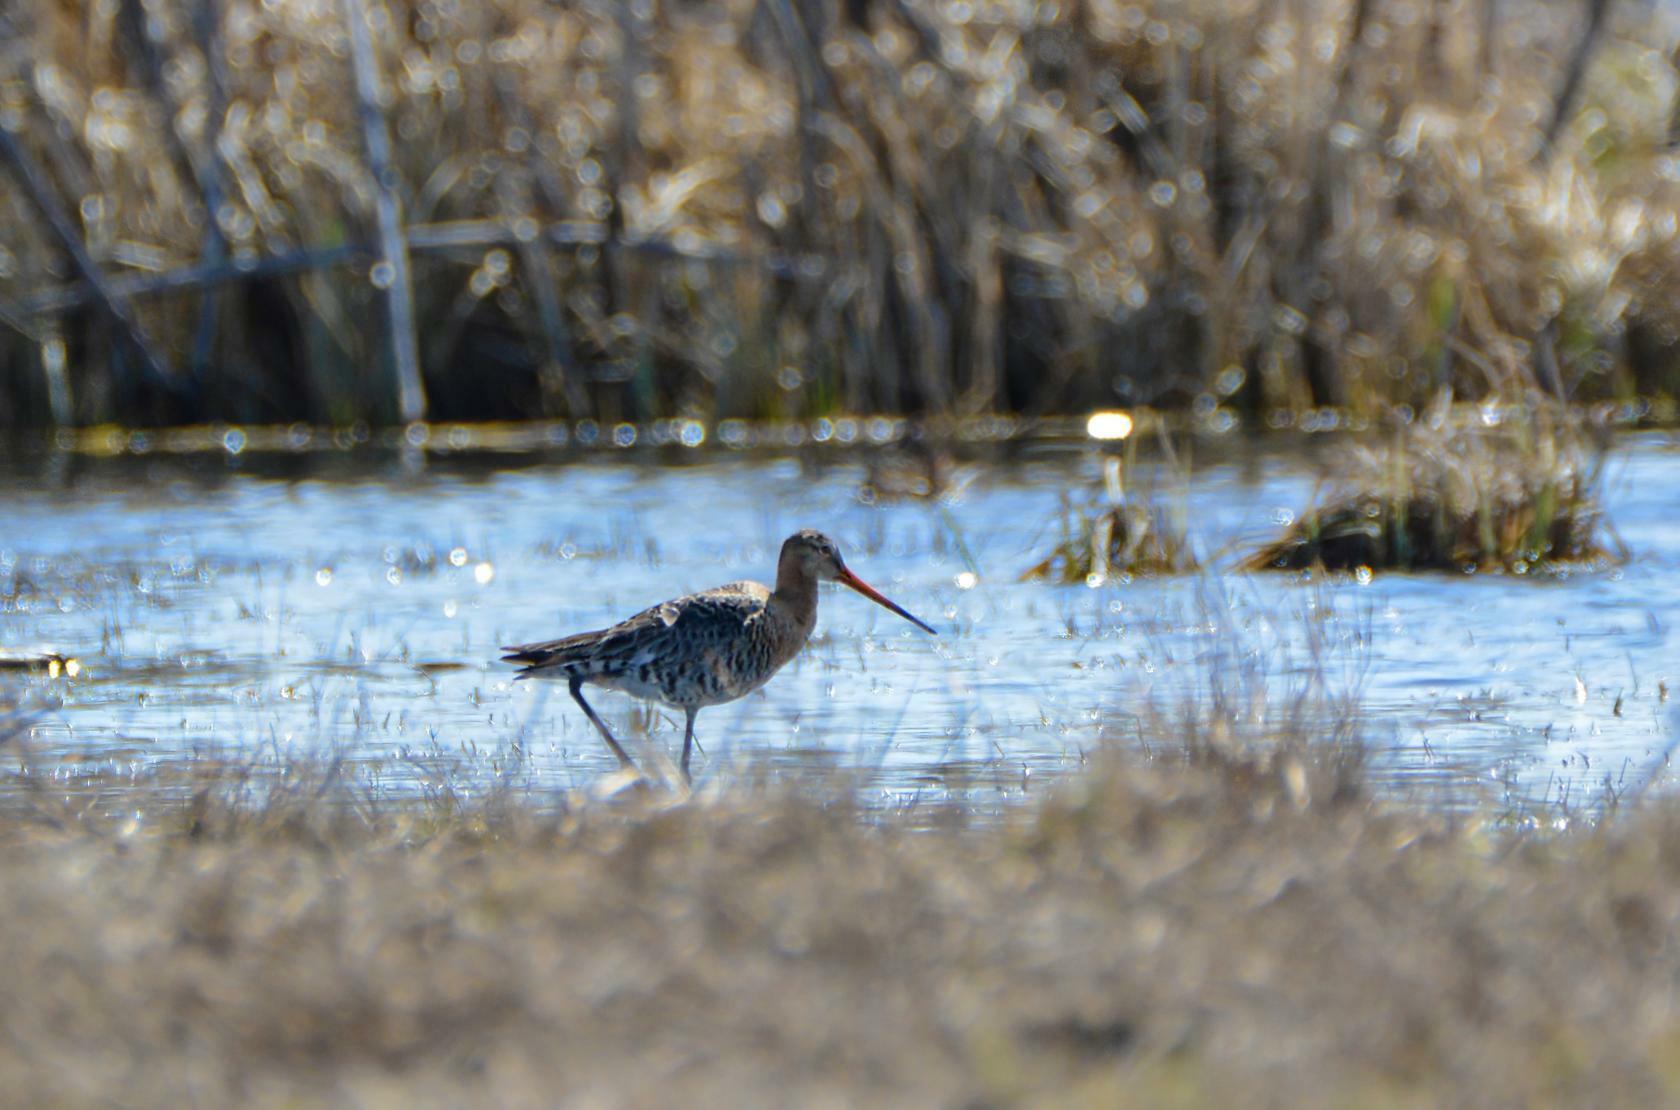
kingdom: Animalia
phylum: Chordata
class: Aves
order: Charadriiformes
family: Scolopacidae
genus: Limosa
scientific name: Limosa limosa
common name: Black-tailed godwit
